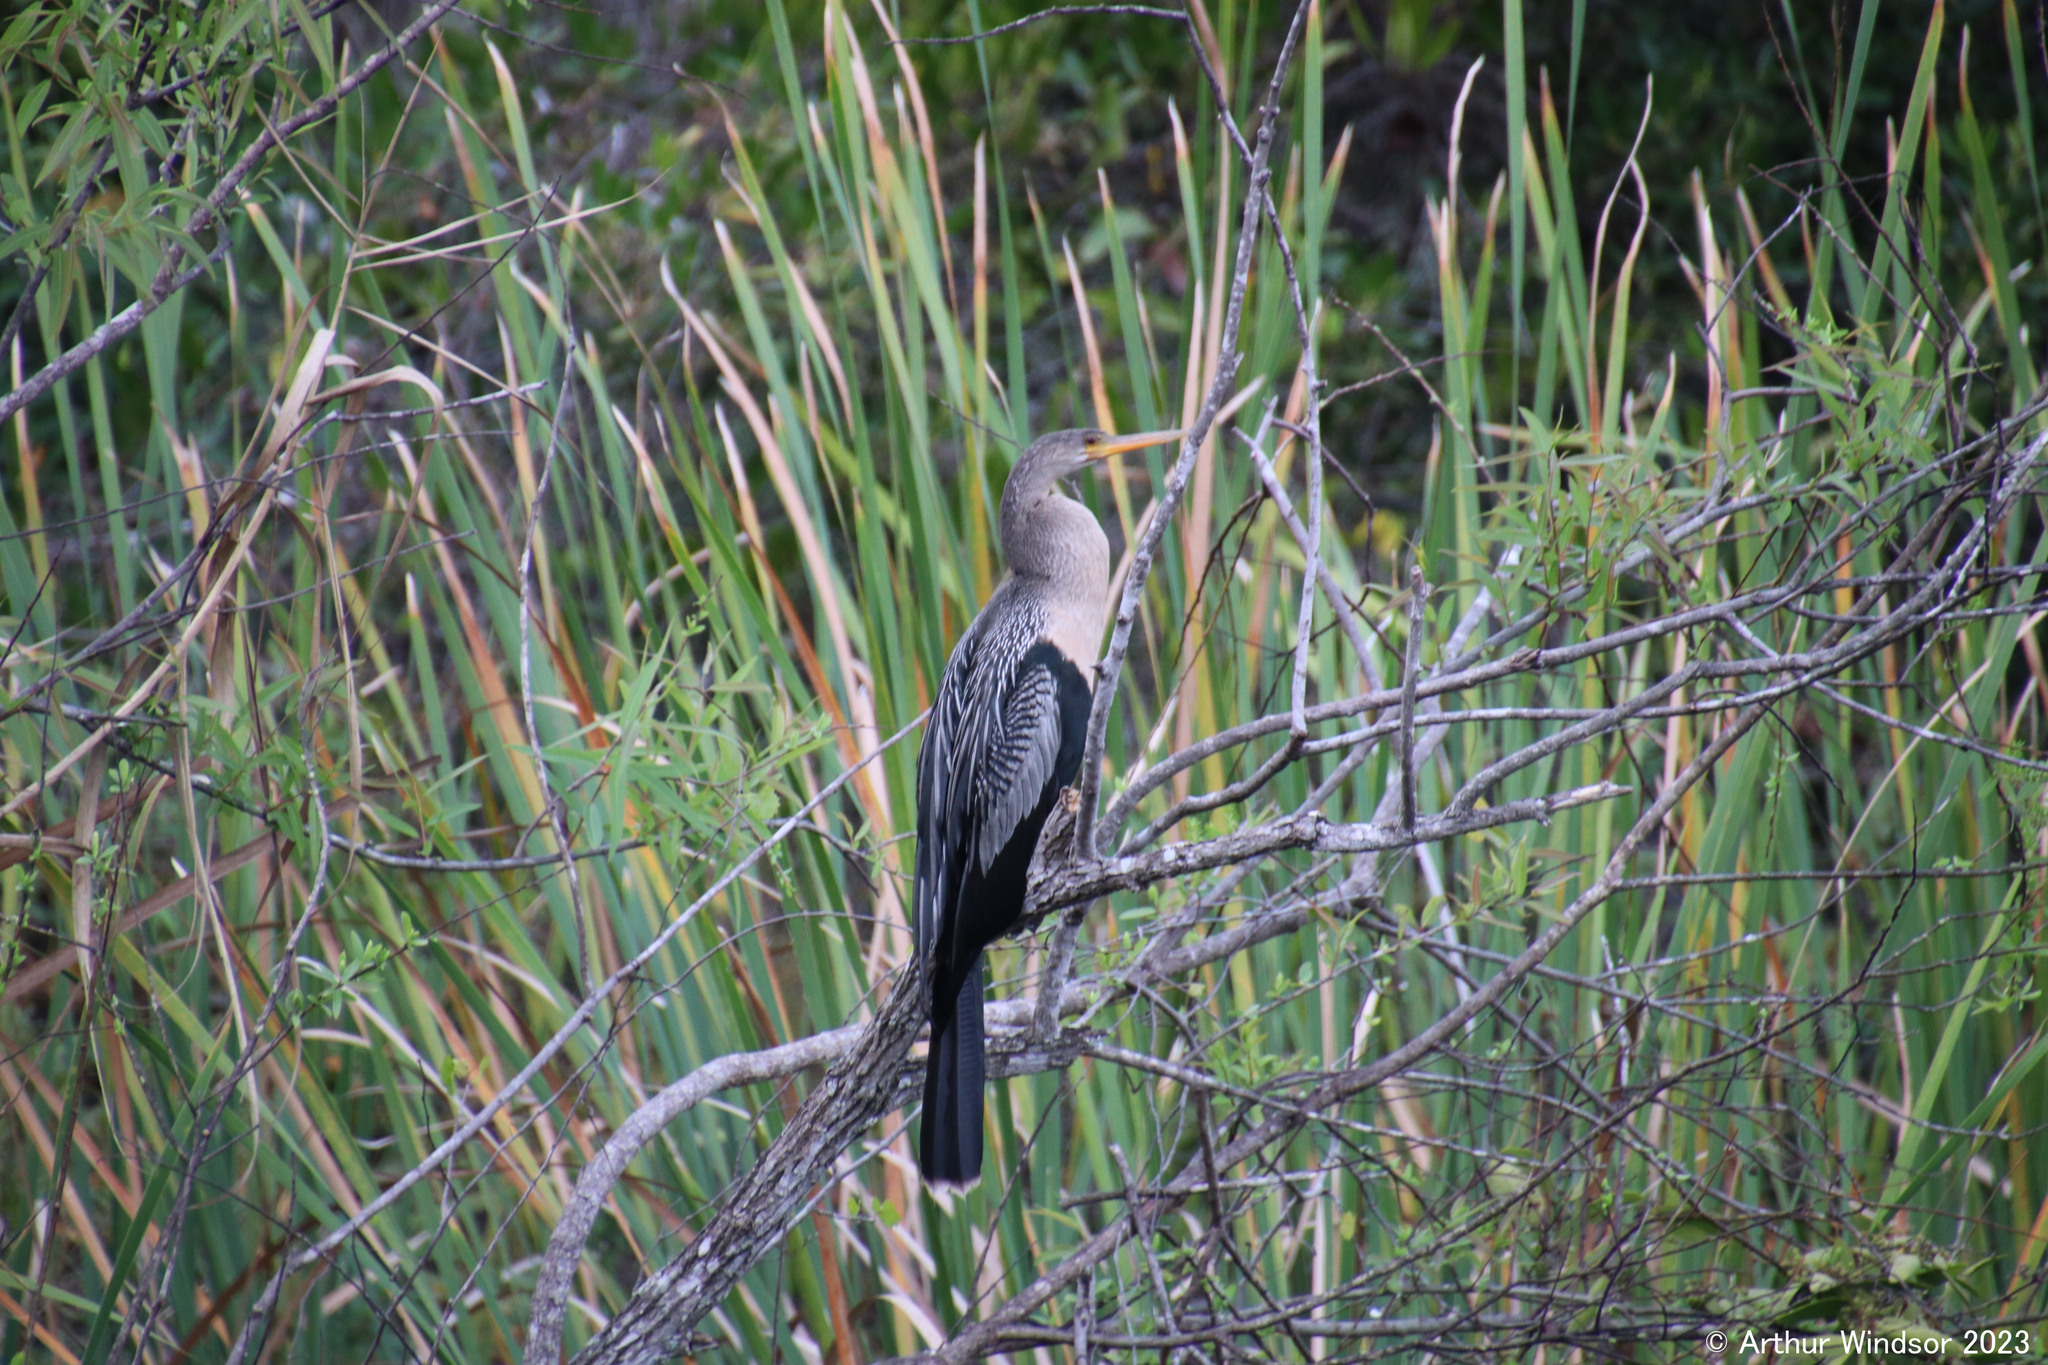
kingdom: Animalia
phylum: Chordata
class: Aves
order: Suliformes
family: Anhingidae
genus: Anhinga
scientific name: Anhinga anhinga
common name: Anhinga
